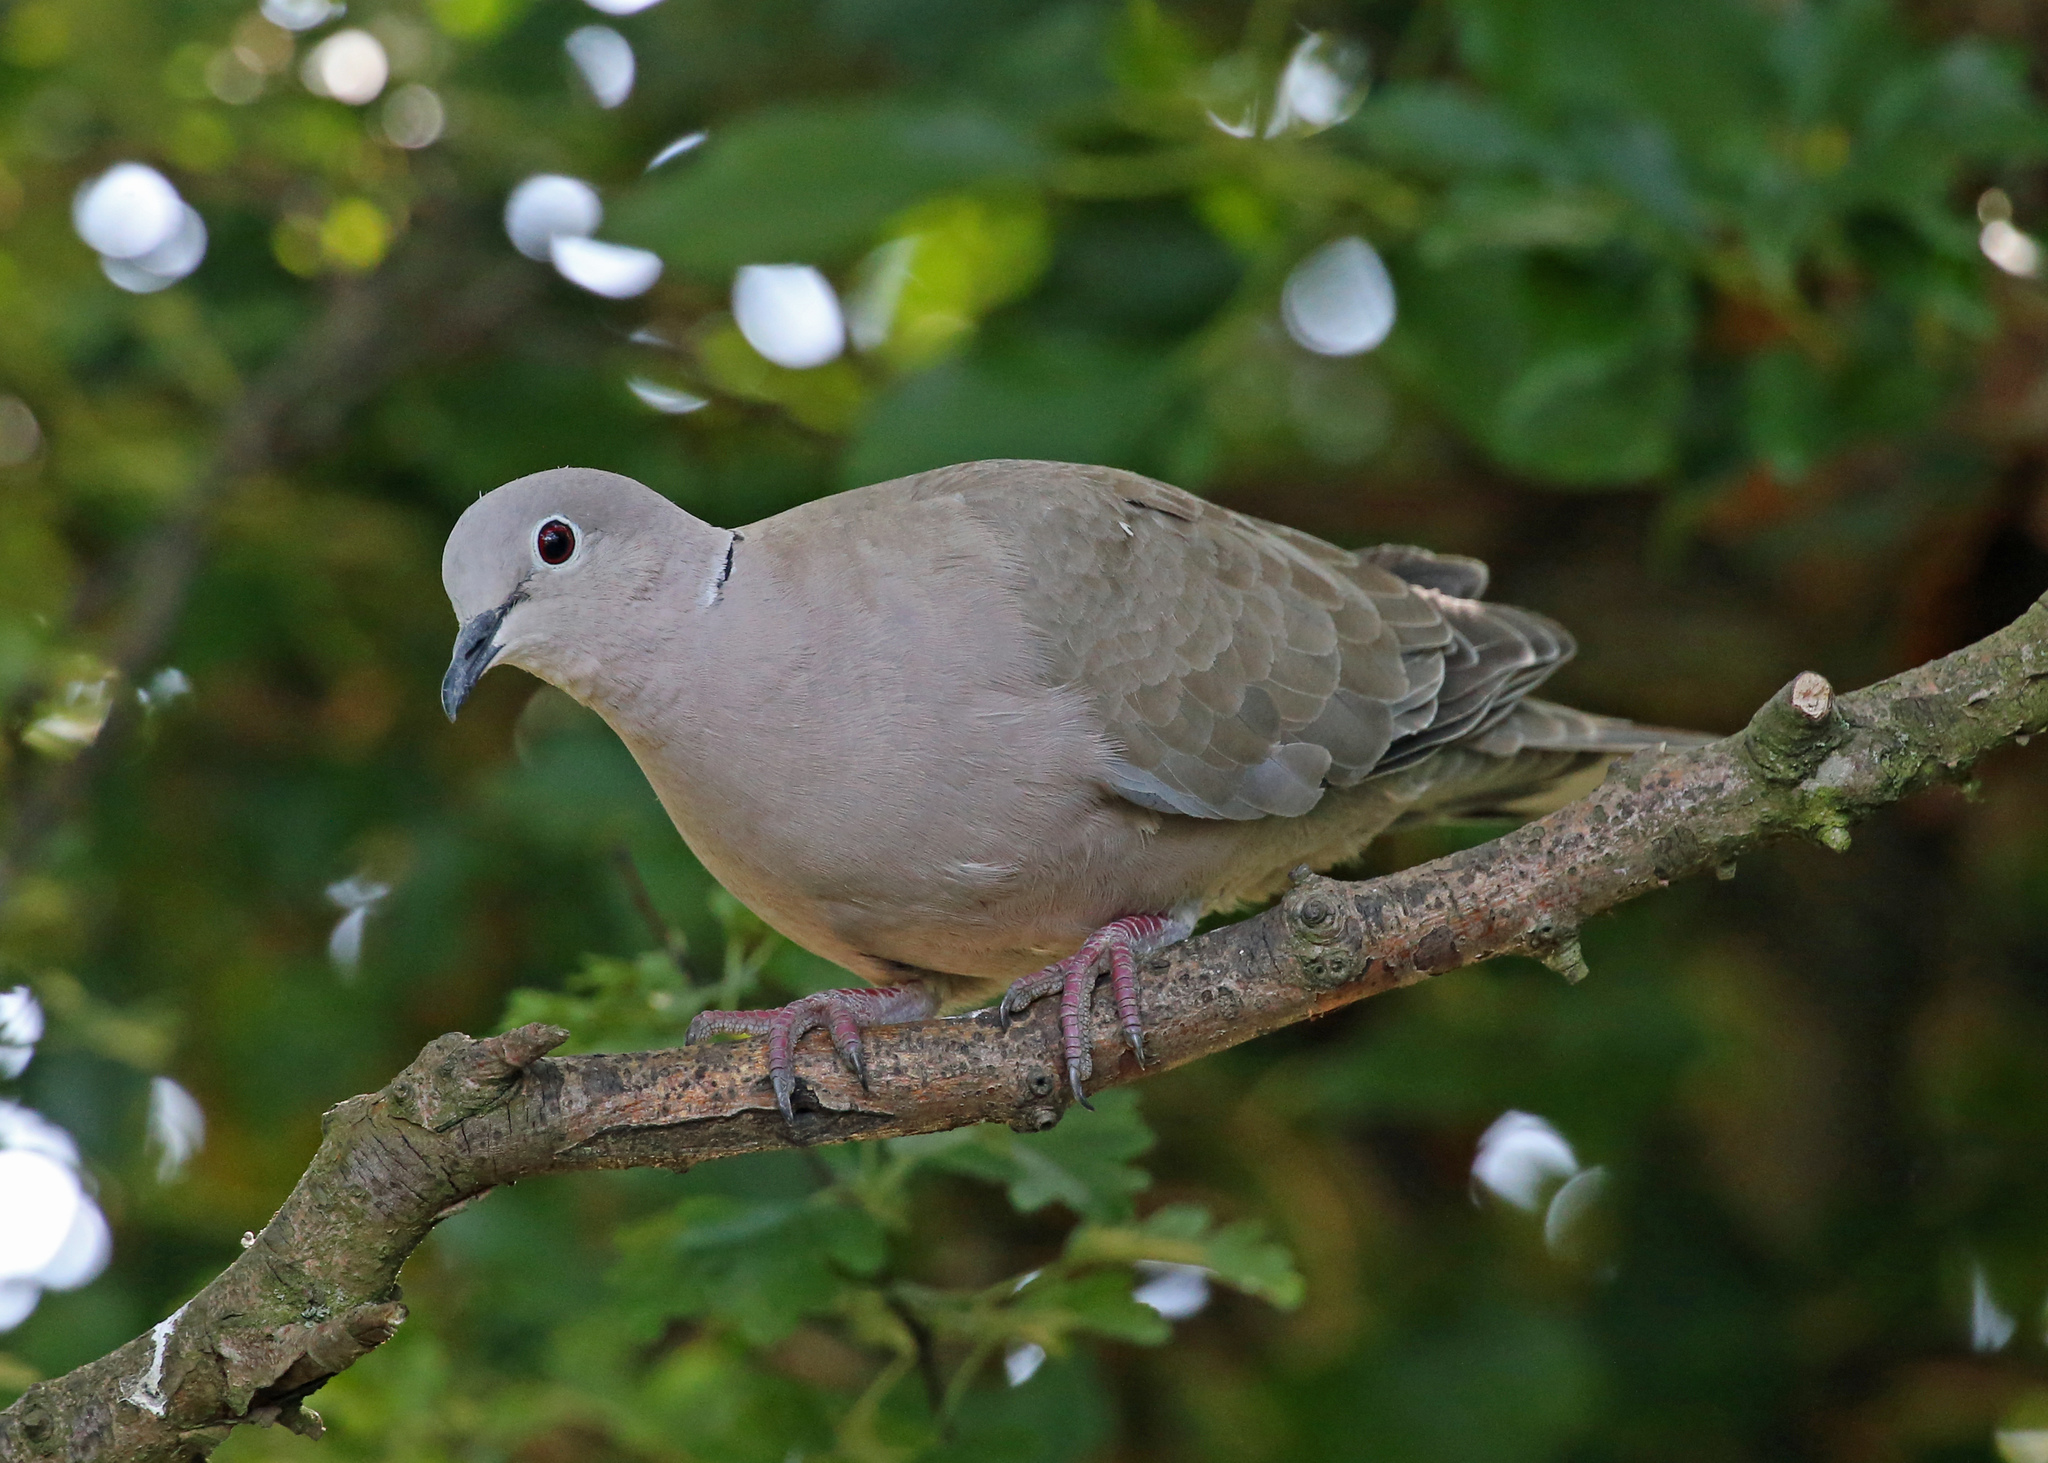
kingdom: Animalia
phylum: Chordata
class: Aves
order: Columbiformes
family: Columbidae
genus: Streptopelia
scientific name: Streptopelia decaocto
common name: Eurasian collared dove
